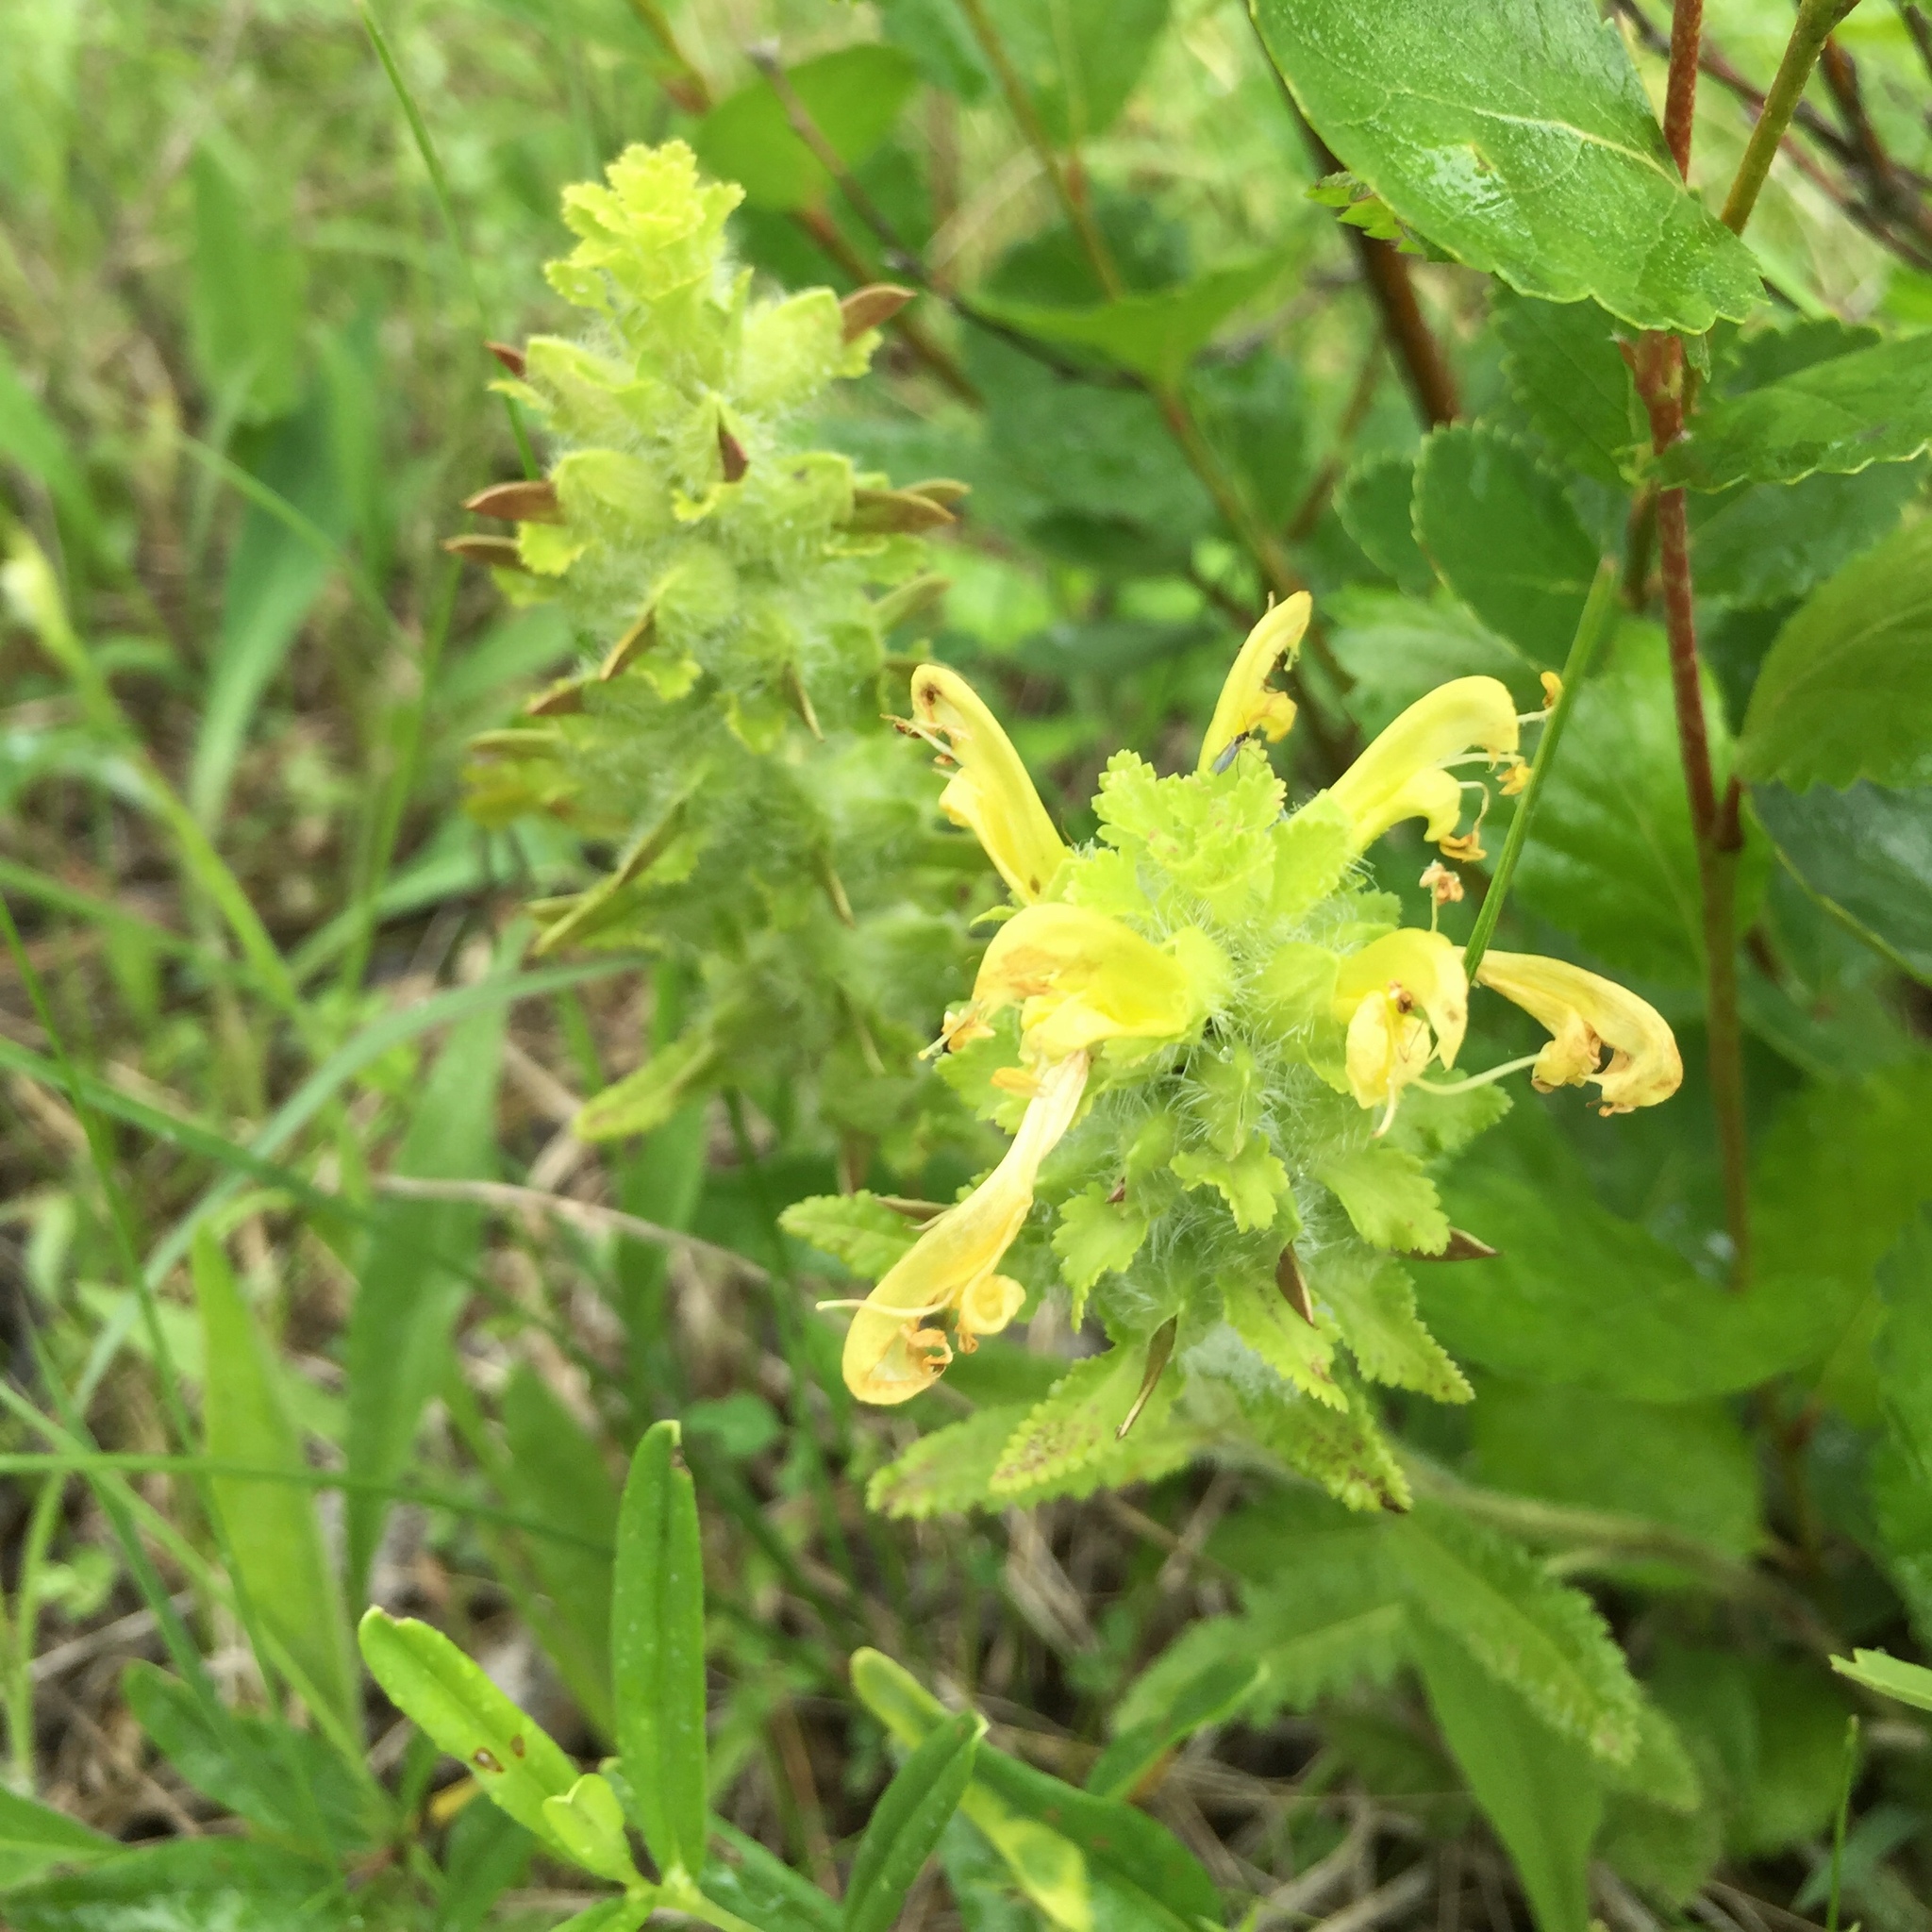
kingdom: Plantae
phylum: Tracheophyta
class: Magnoliopsida
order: Lamiales
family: Orobanchaceae
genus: Pedicularis
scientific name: Pedicularis canadensis
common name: Early lousewort
